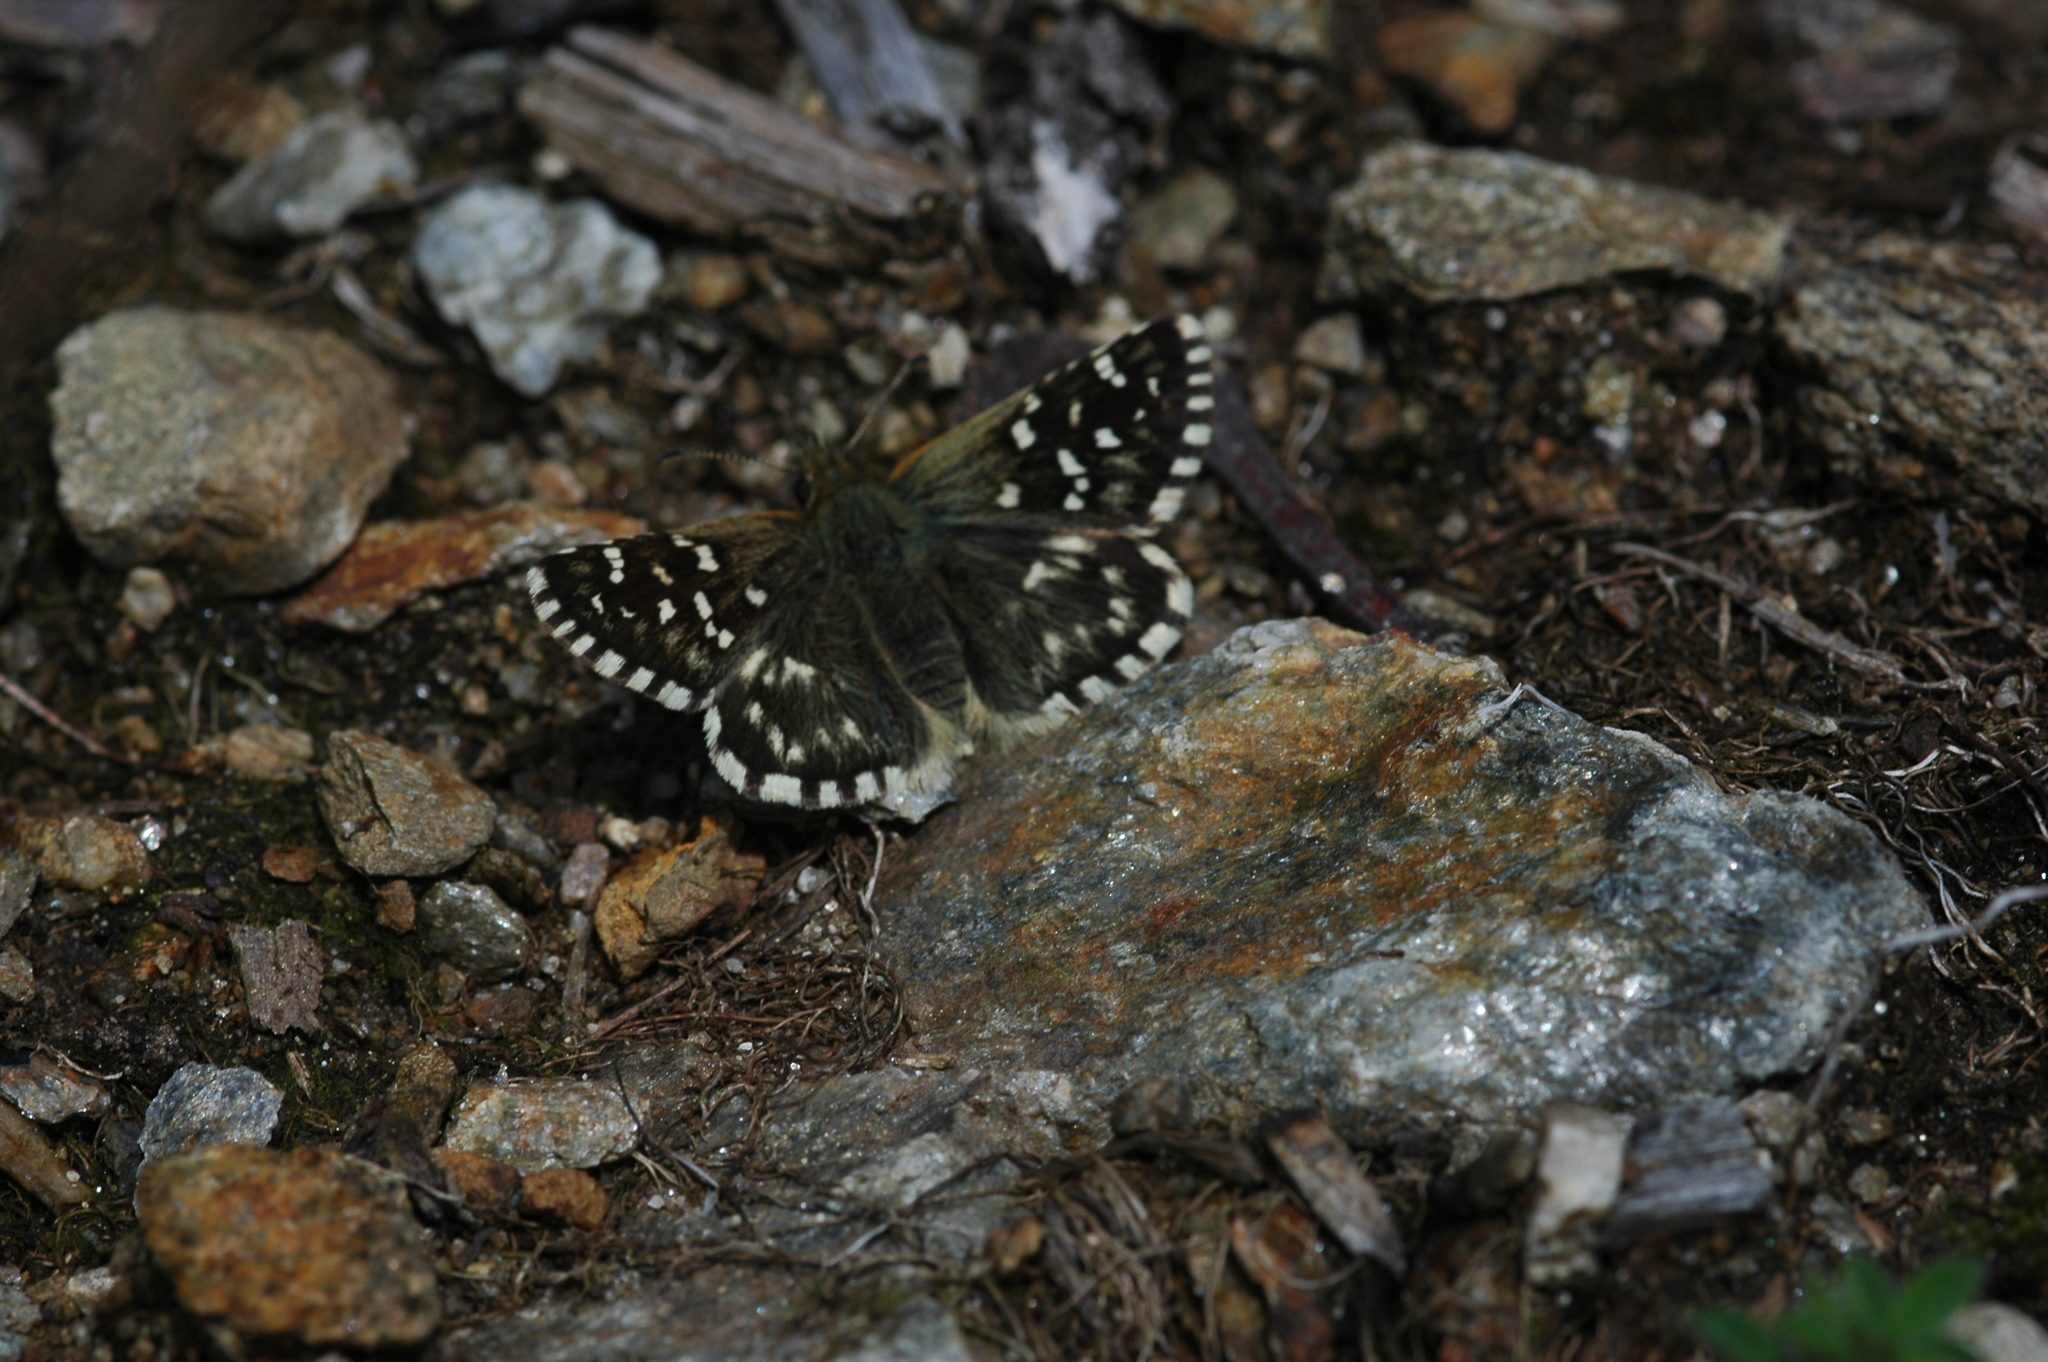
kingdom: Animalia
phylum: Arthropoda
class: Insecta
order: Lepidoptera
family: Hesperiidae
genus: Pyrgus
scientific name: Pyrgus malvoides
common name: Southern grizzled skipper
